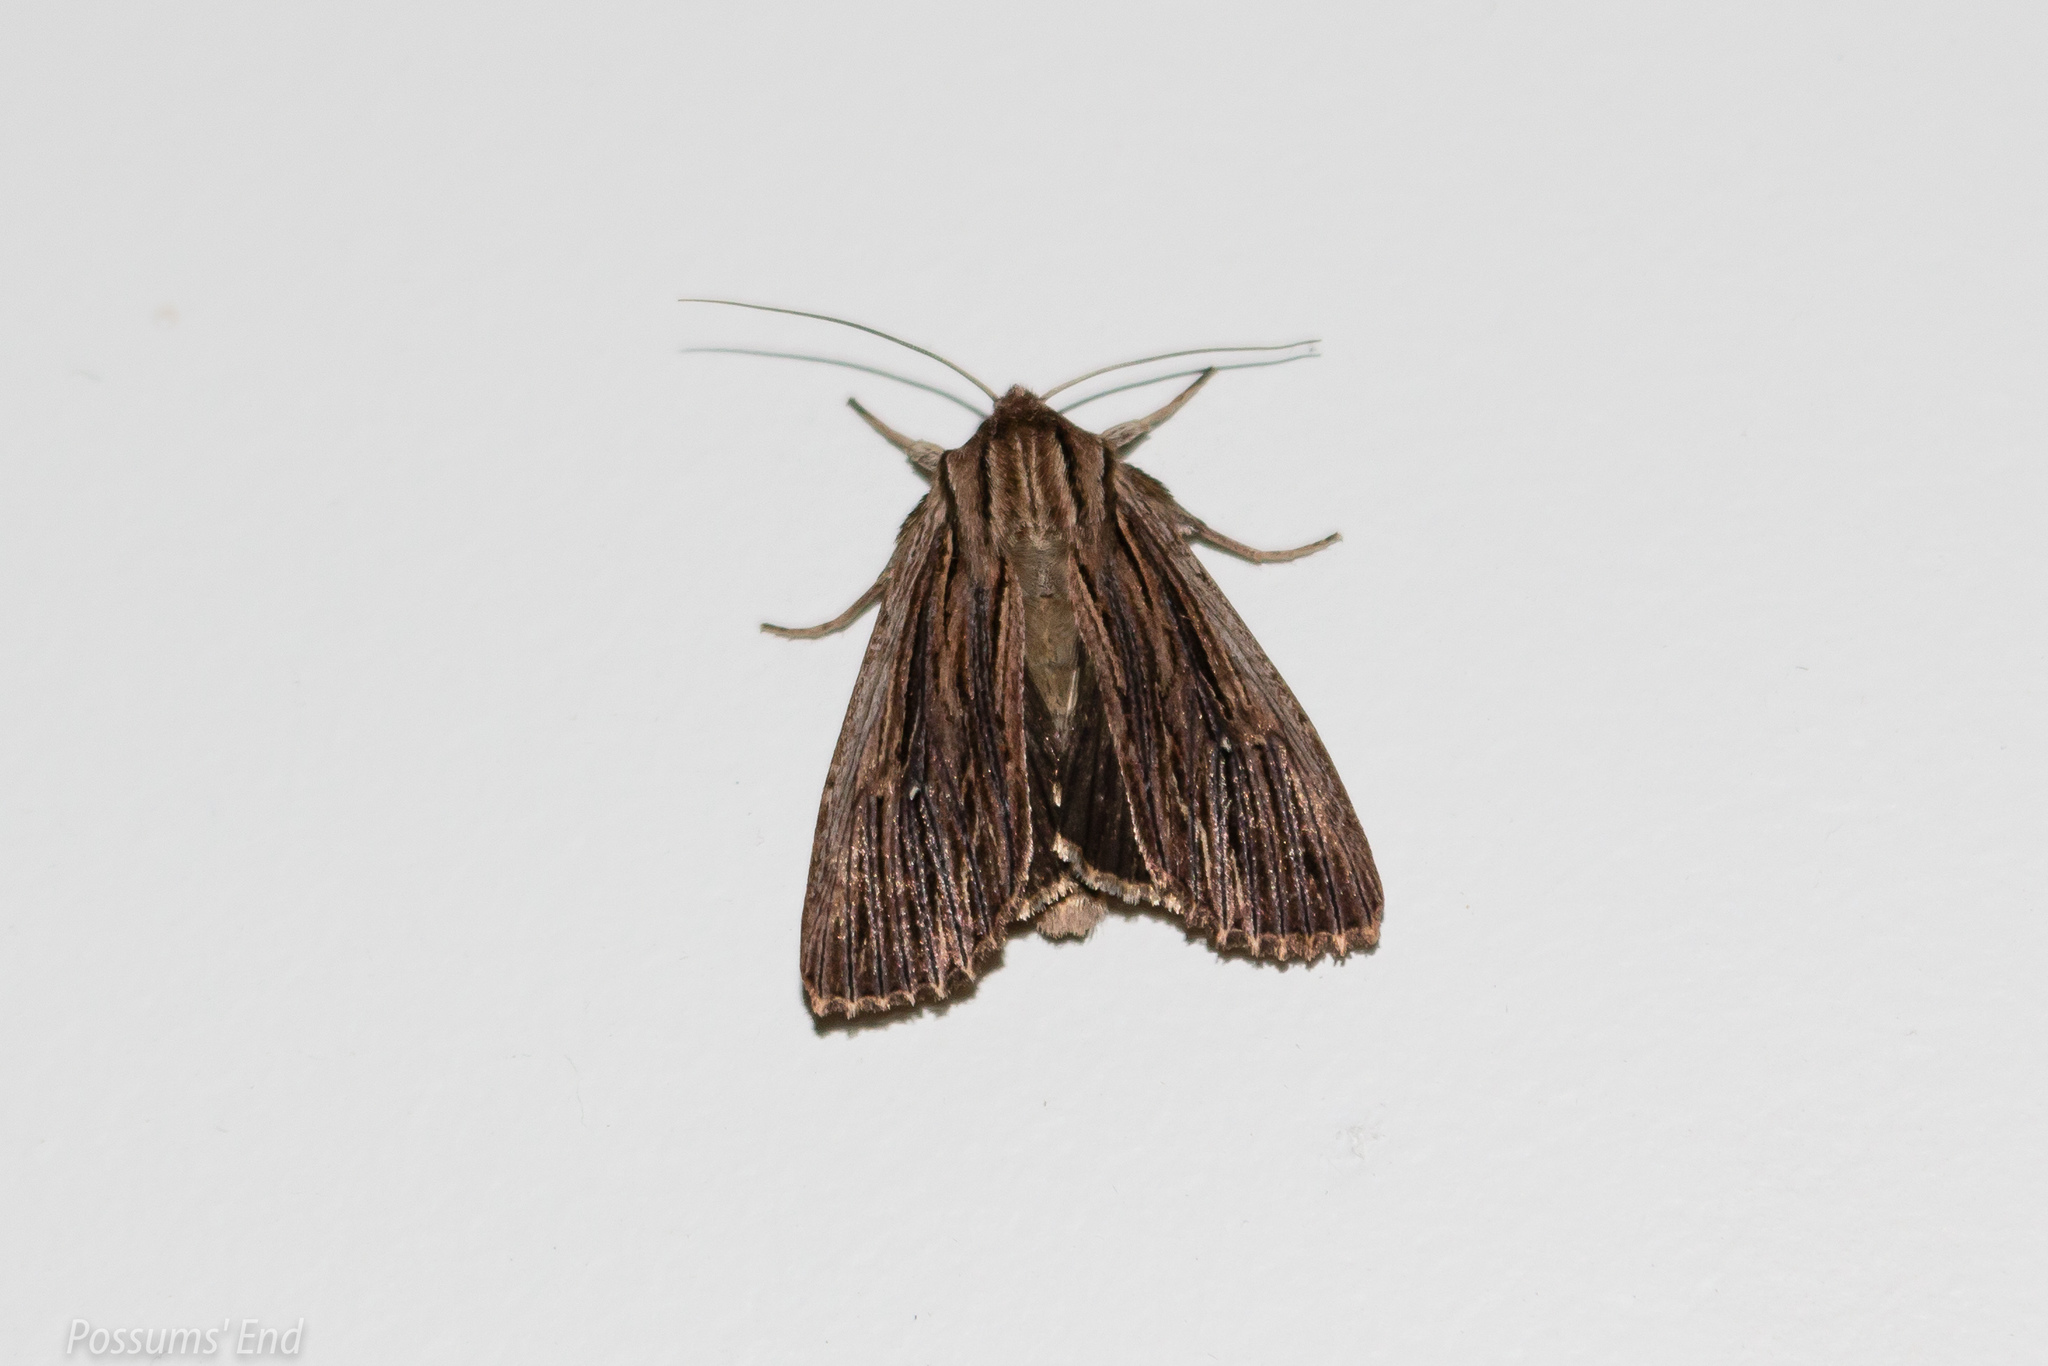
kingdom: Animalia
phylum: Arthropoda
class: Insecta
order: Lepidoptera
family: Noctuidae
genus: Ichneutica
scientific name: Ichneutica
